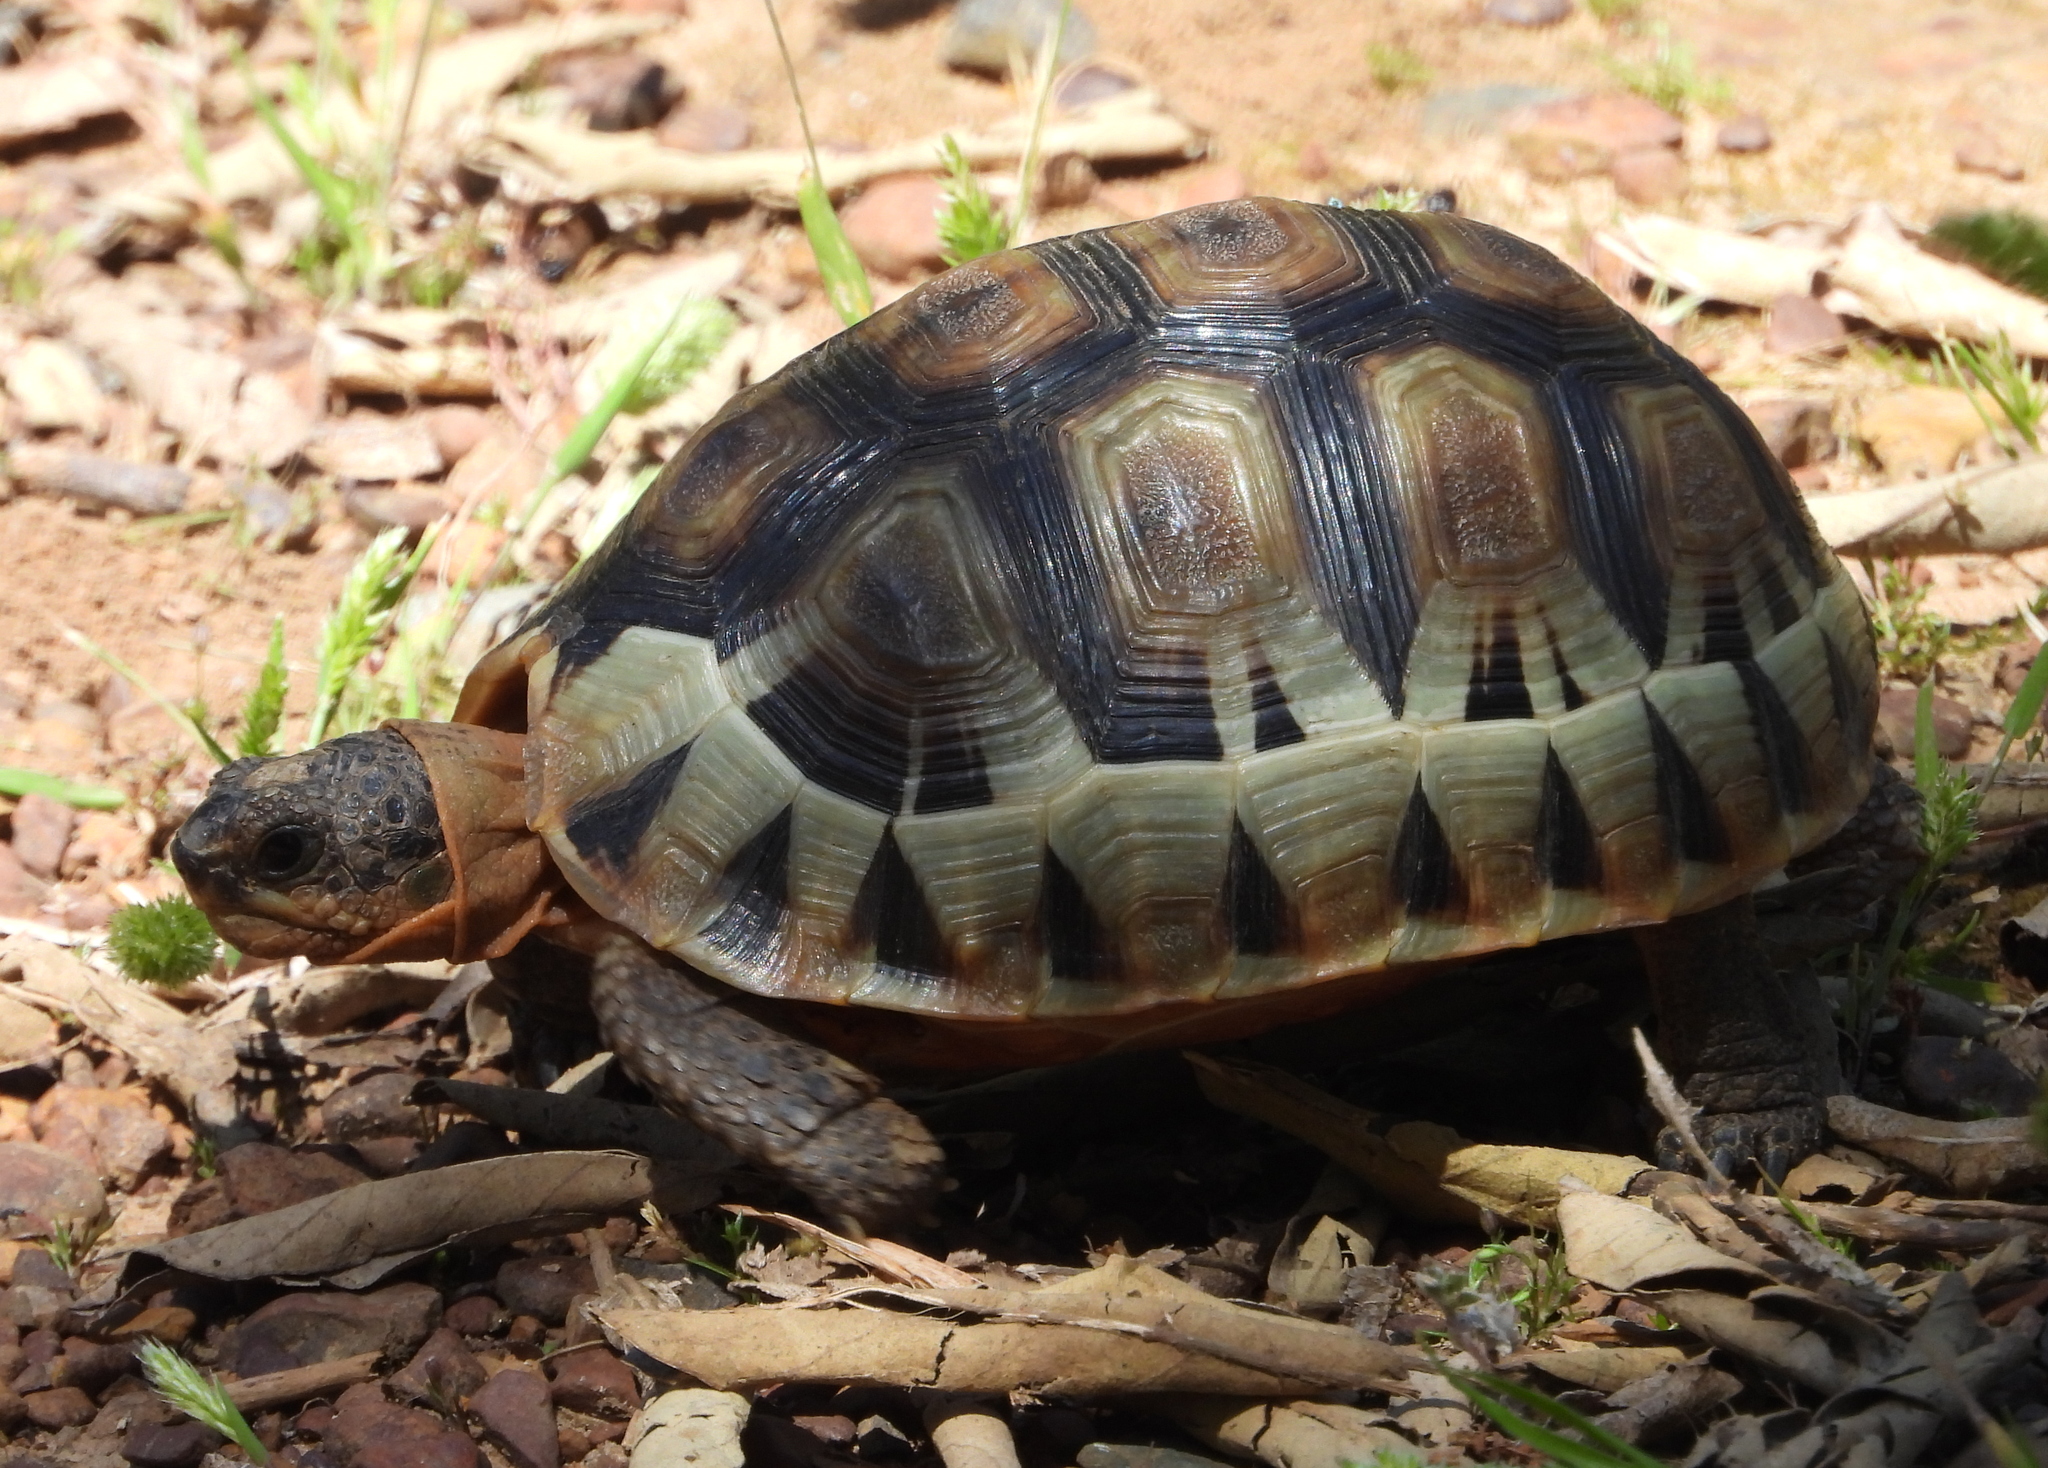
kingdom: Animalia
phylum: Chordata
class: Testudines
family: Testudinidae
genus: Chersina
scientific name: Chersina angulata
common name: South african bowsprit tortoise
